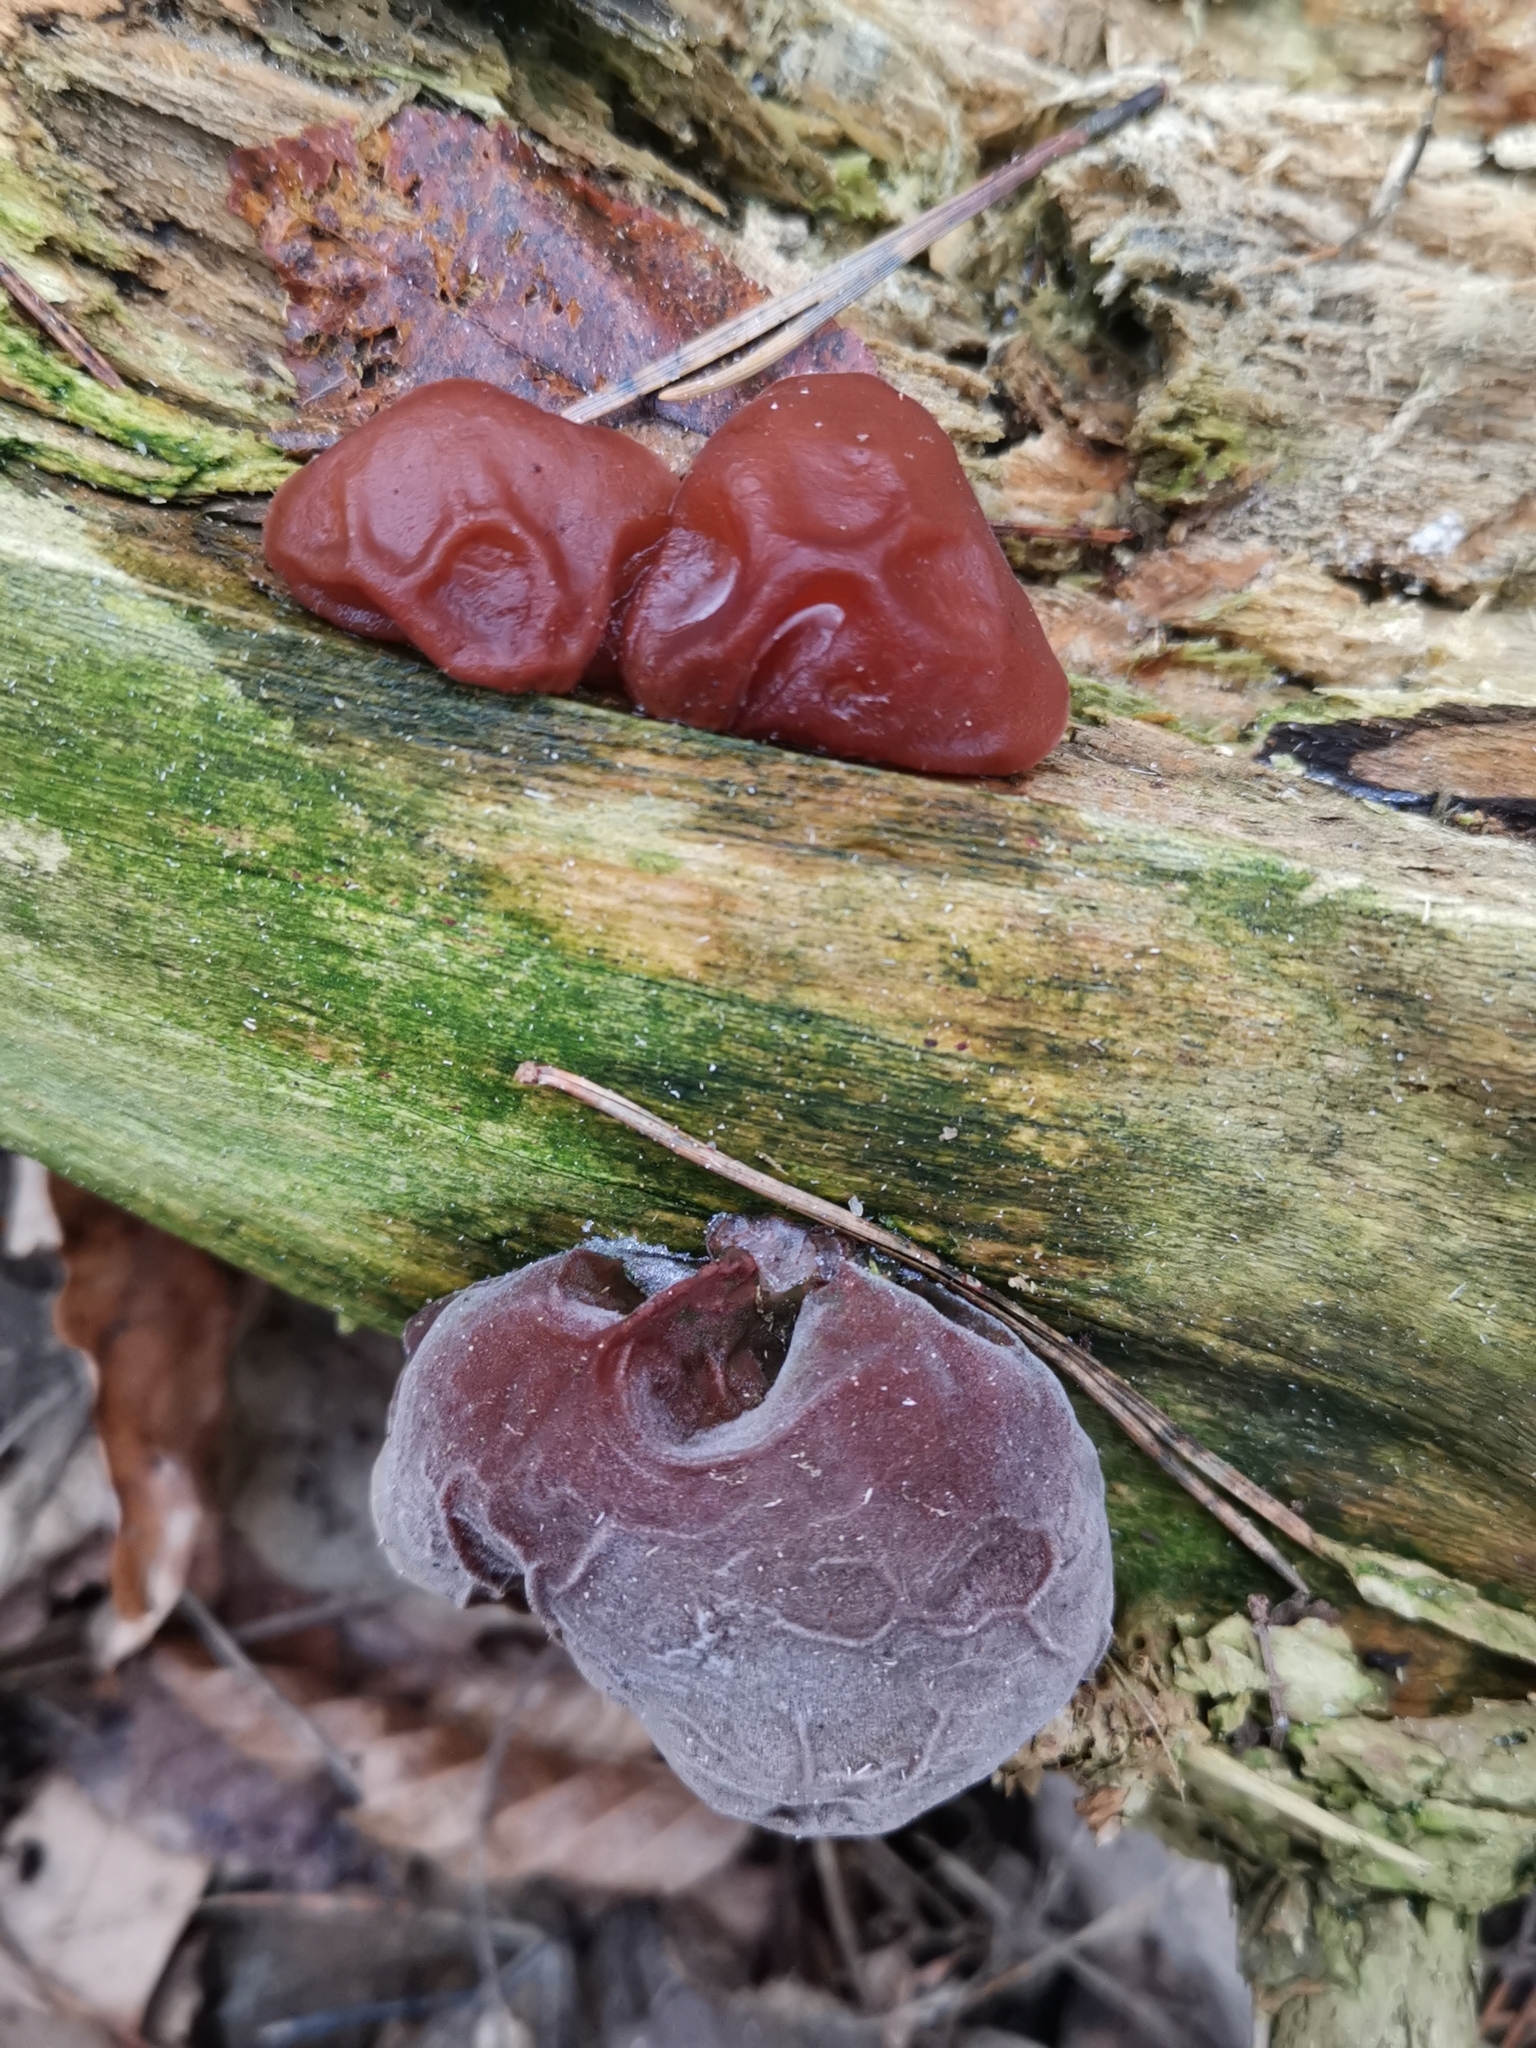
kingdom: Fungi
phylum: Basidiomycota
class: Agaricomycetes
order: Auriculariales
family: Auriculariaceae
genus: Auricularia
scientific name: Auricularia auricula-judae
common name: Jelly ear
